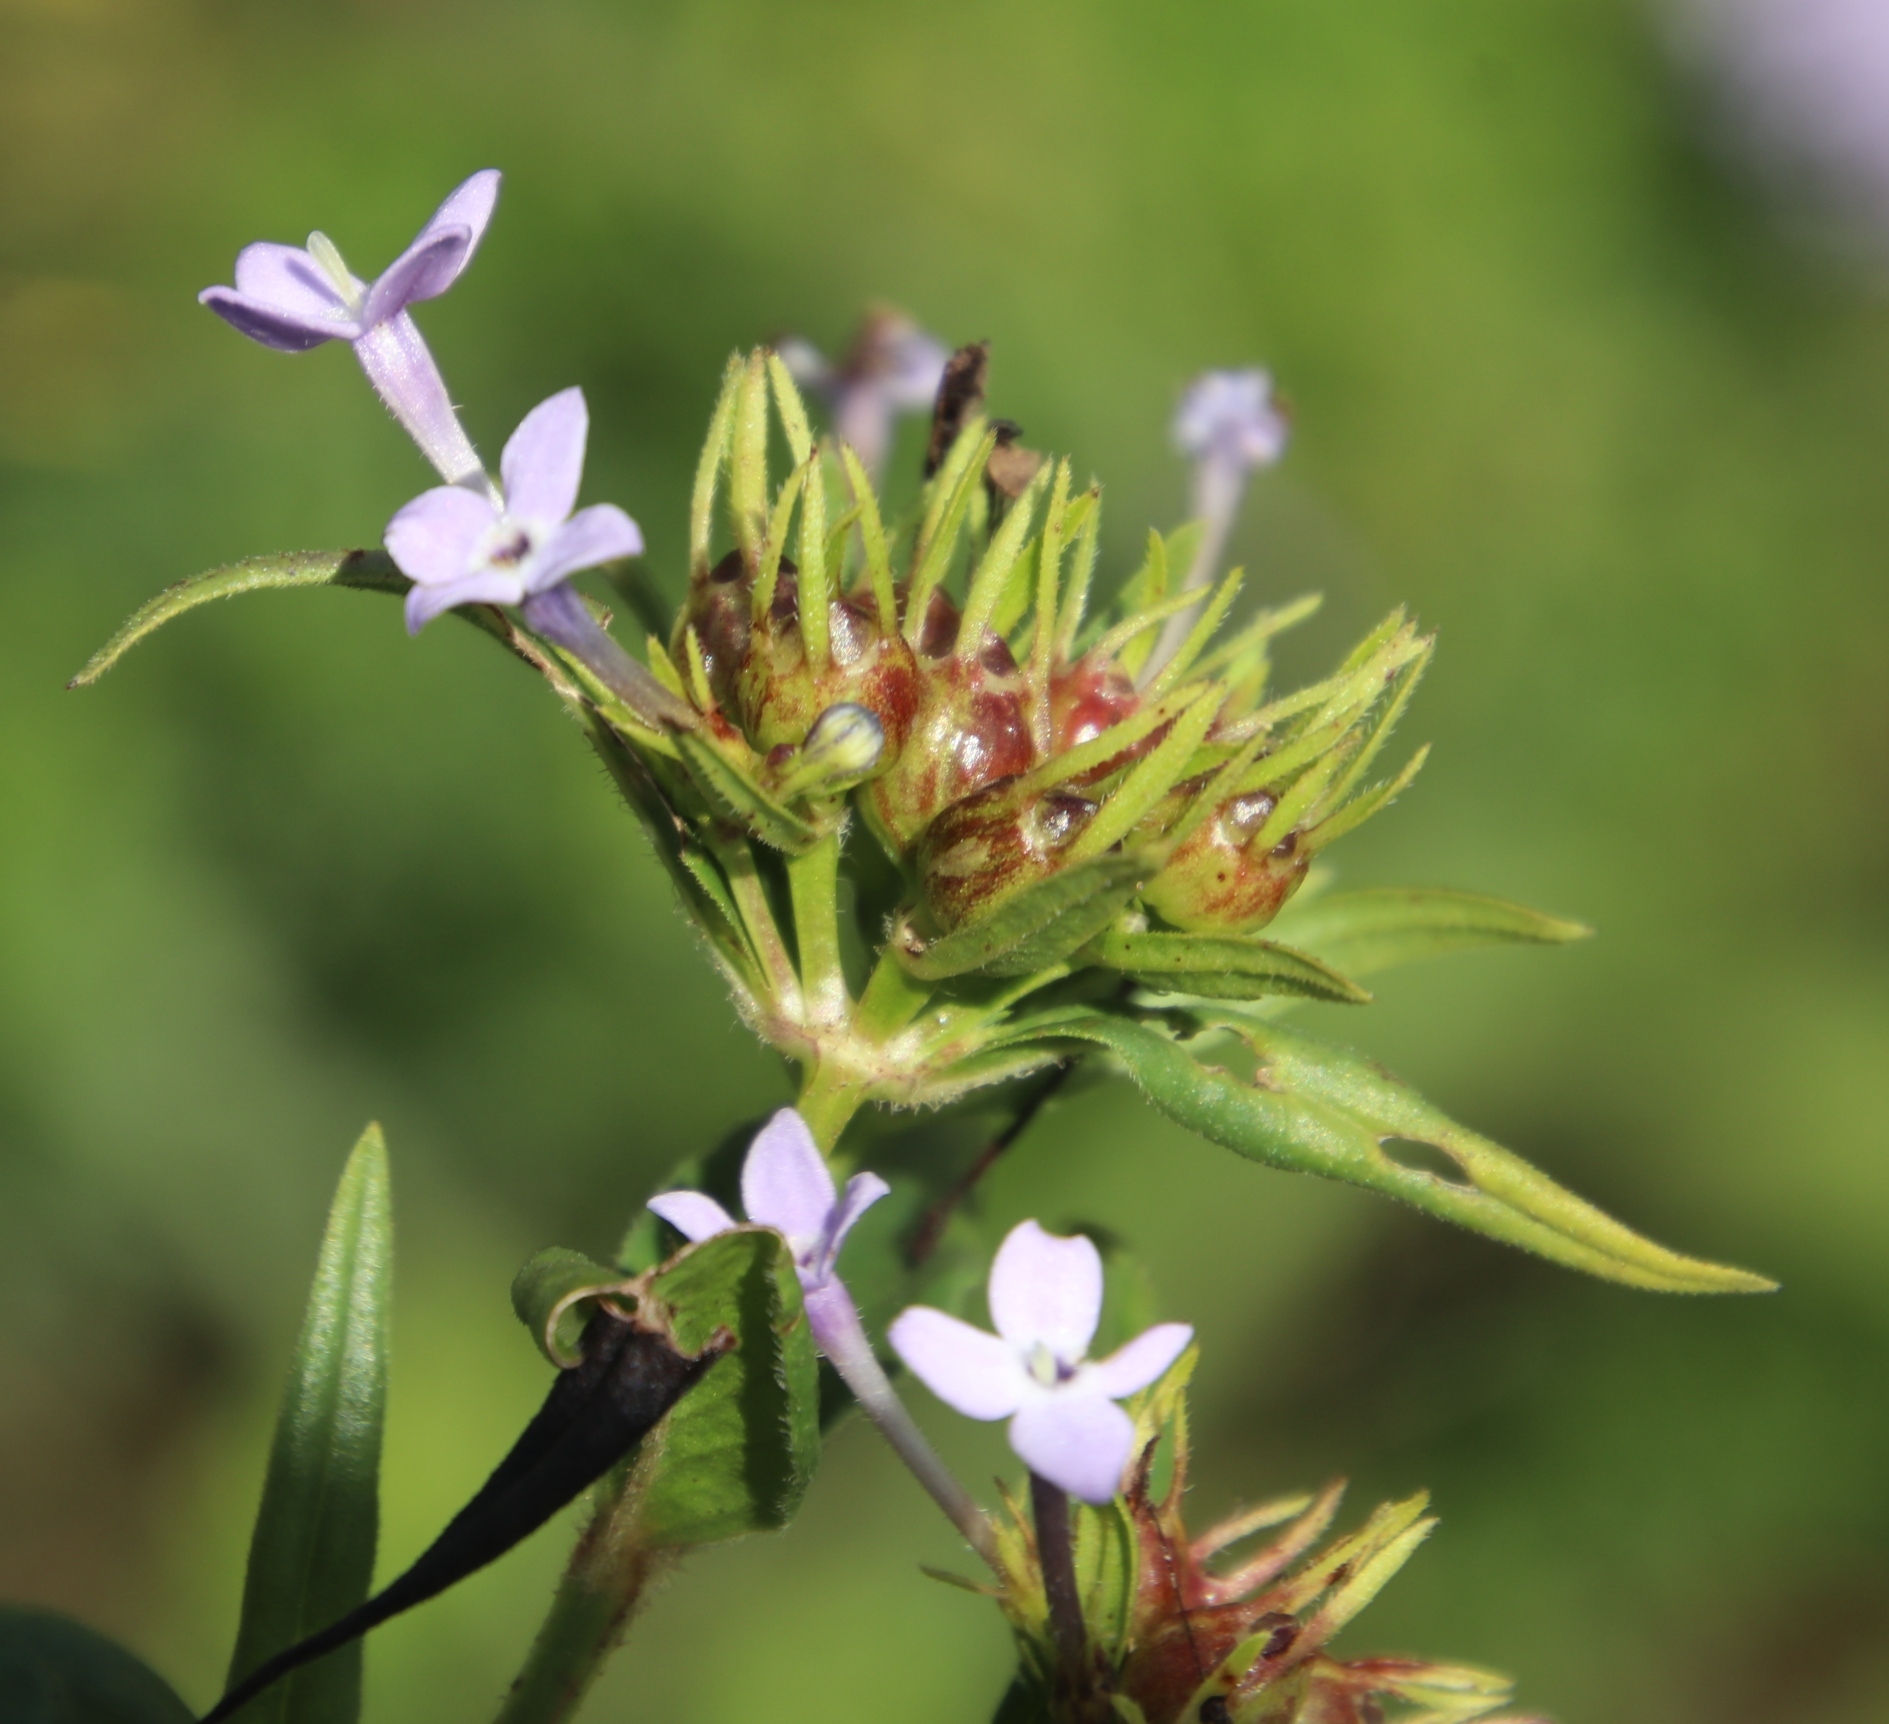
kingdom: Plantae
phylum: Tracheophyta
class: Magnoliopsida
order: Gentianales
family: Rubiaceae
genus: Conostomium
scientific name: Conostomium natalense
